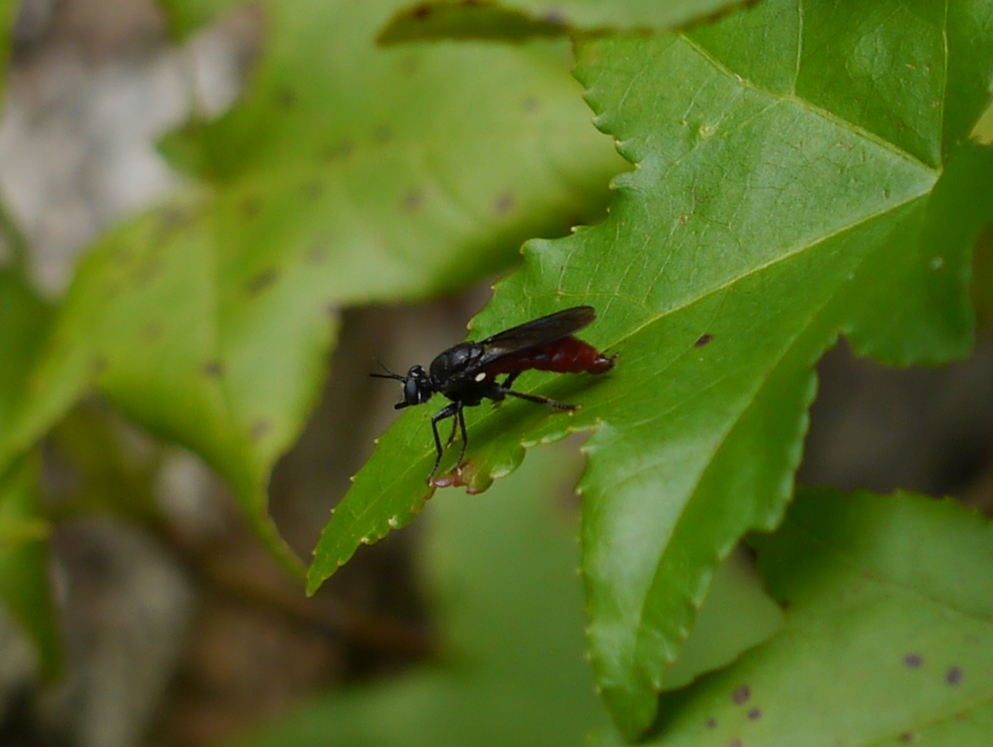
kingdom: Animalia
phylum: Arthropoda
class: Insecta
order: Diptera
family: Asilidae
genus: Lampria
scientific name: Lampria bicolor
